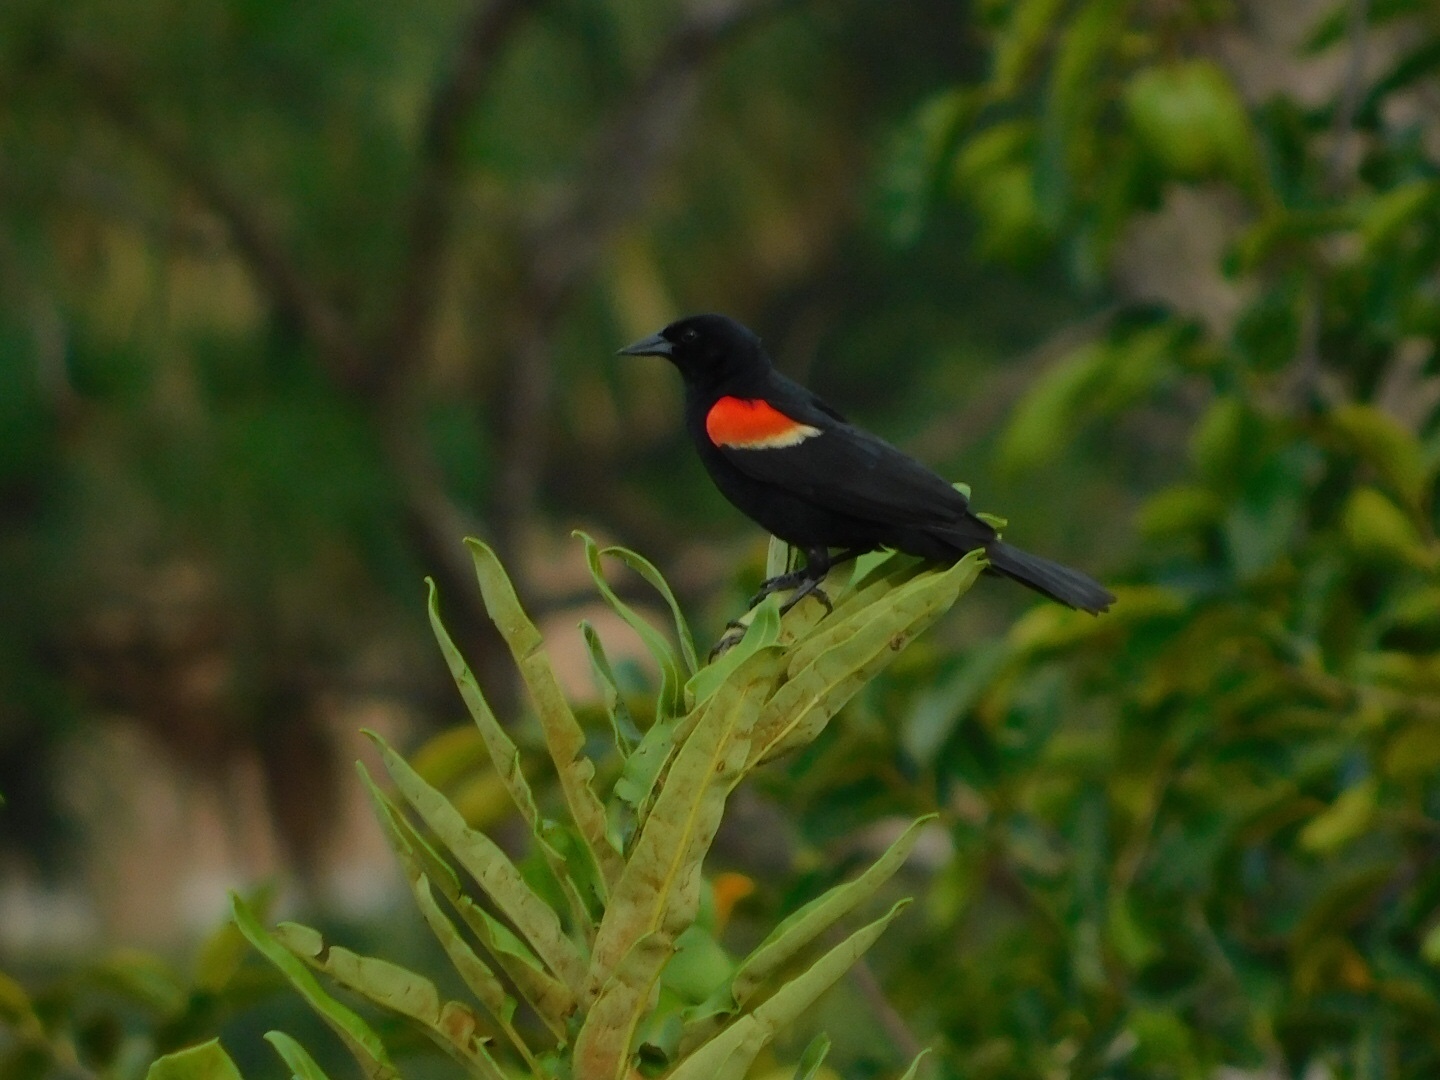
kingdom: Animalia
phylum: Chordata
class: Aves
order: Passeriformes
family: Icteridae
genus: Agelaius
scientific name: Agelaius phoeniceus
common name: Red-winged blackbird
